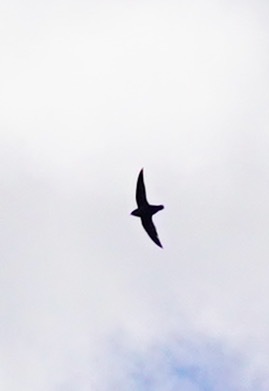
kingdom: Animalia
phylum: Chordata
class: Aves
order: Apodiformes
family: Apodidae
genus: Chaetura
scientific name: Chaetura vauxi
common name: Vaux's swift
